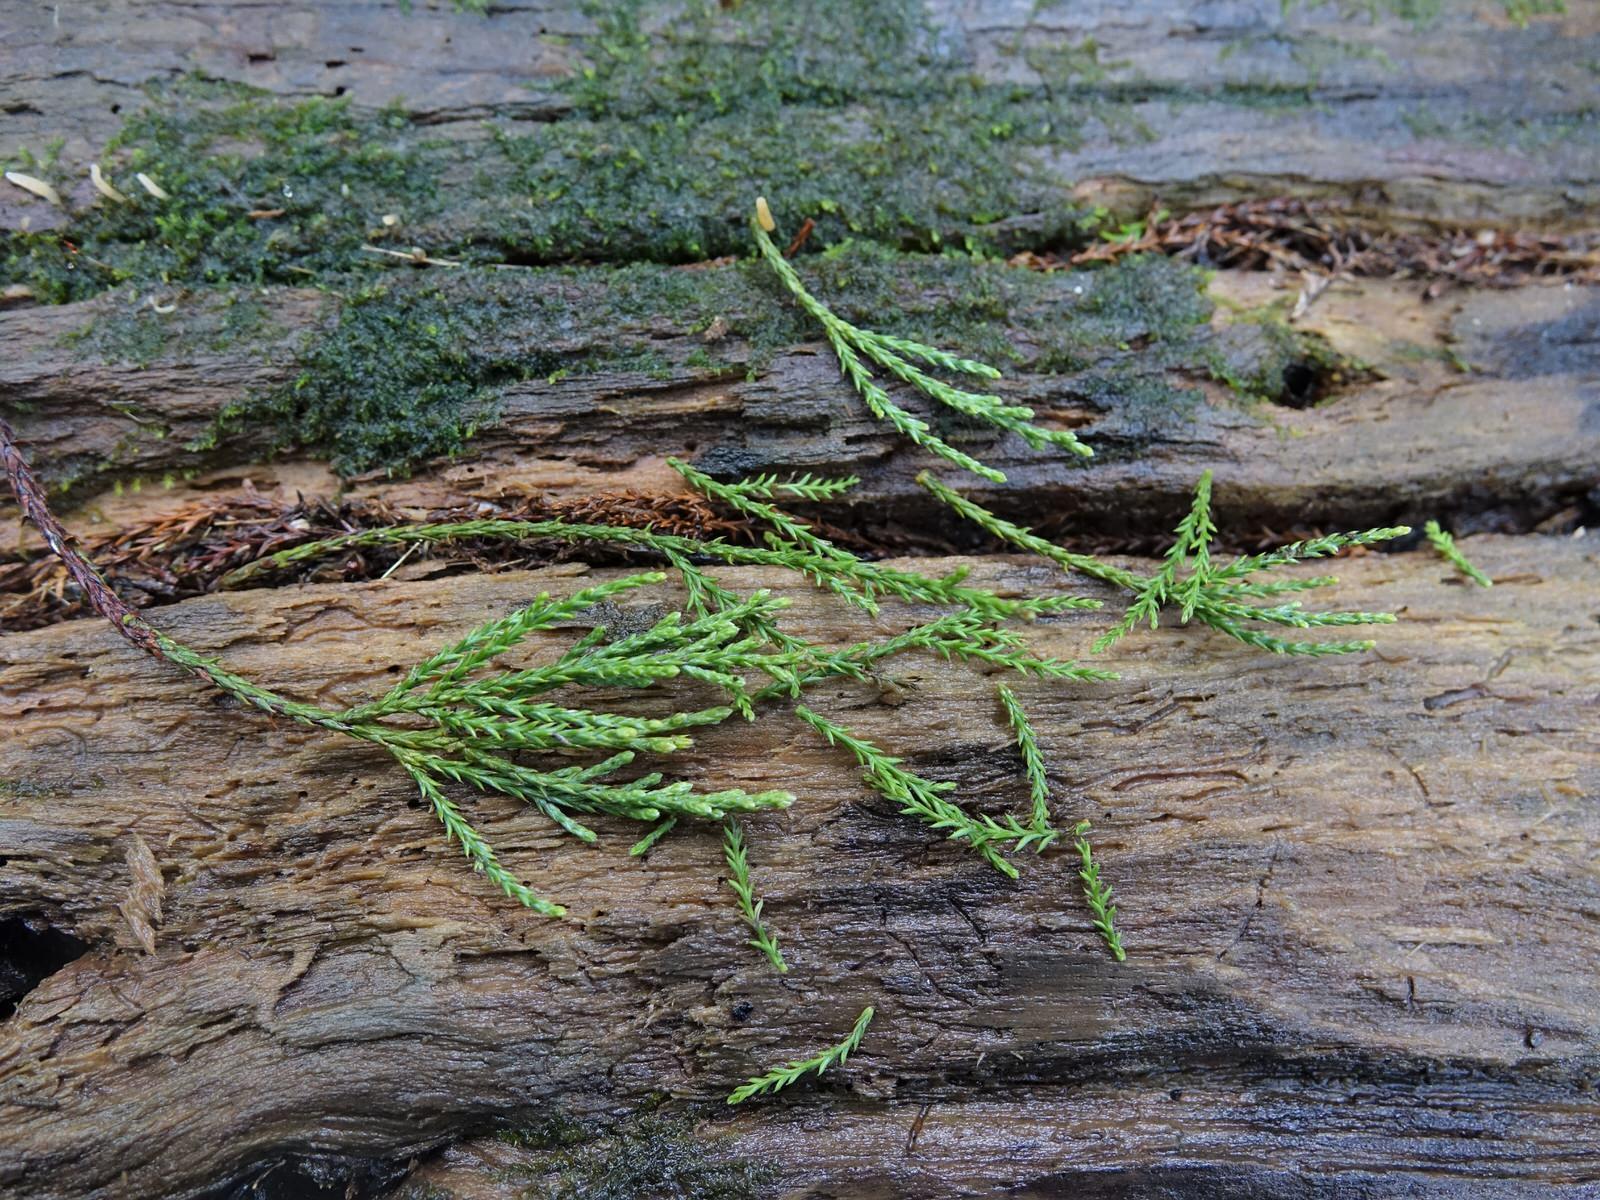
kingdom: Plantae
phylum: Tracheophyta
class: Pinopsida
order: Pinales
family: Podocarpaceae
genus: Dacrycarpus
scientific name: Dacrycarpus dacrydioides
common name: White pine
